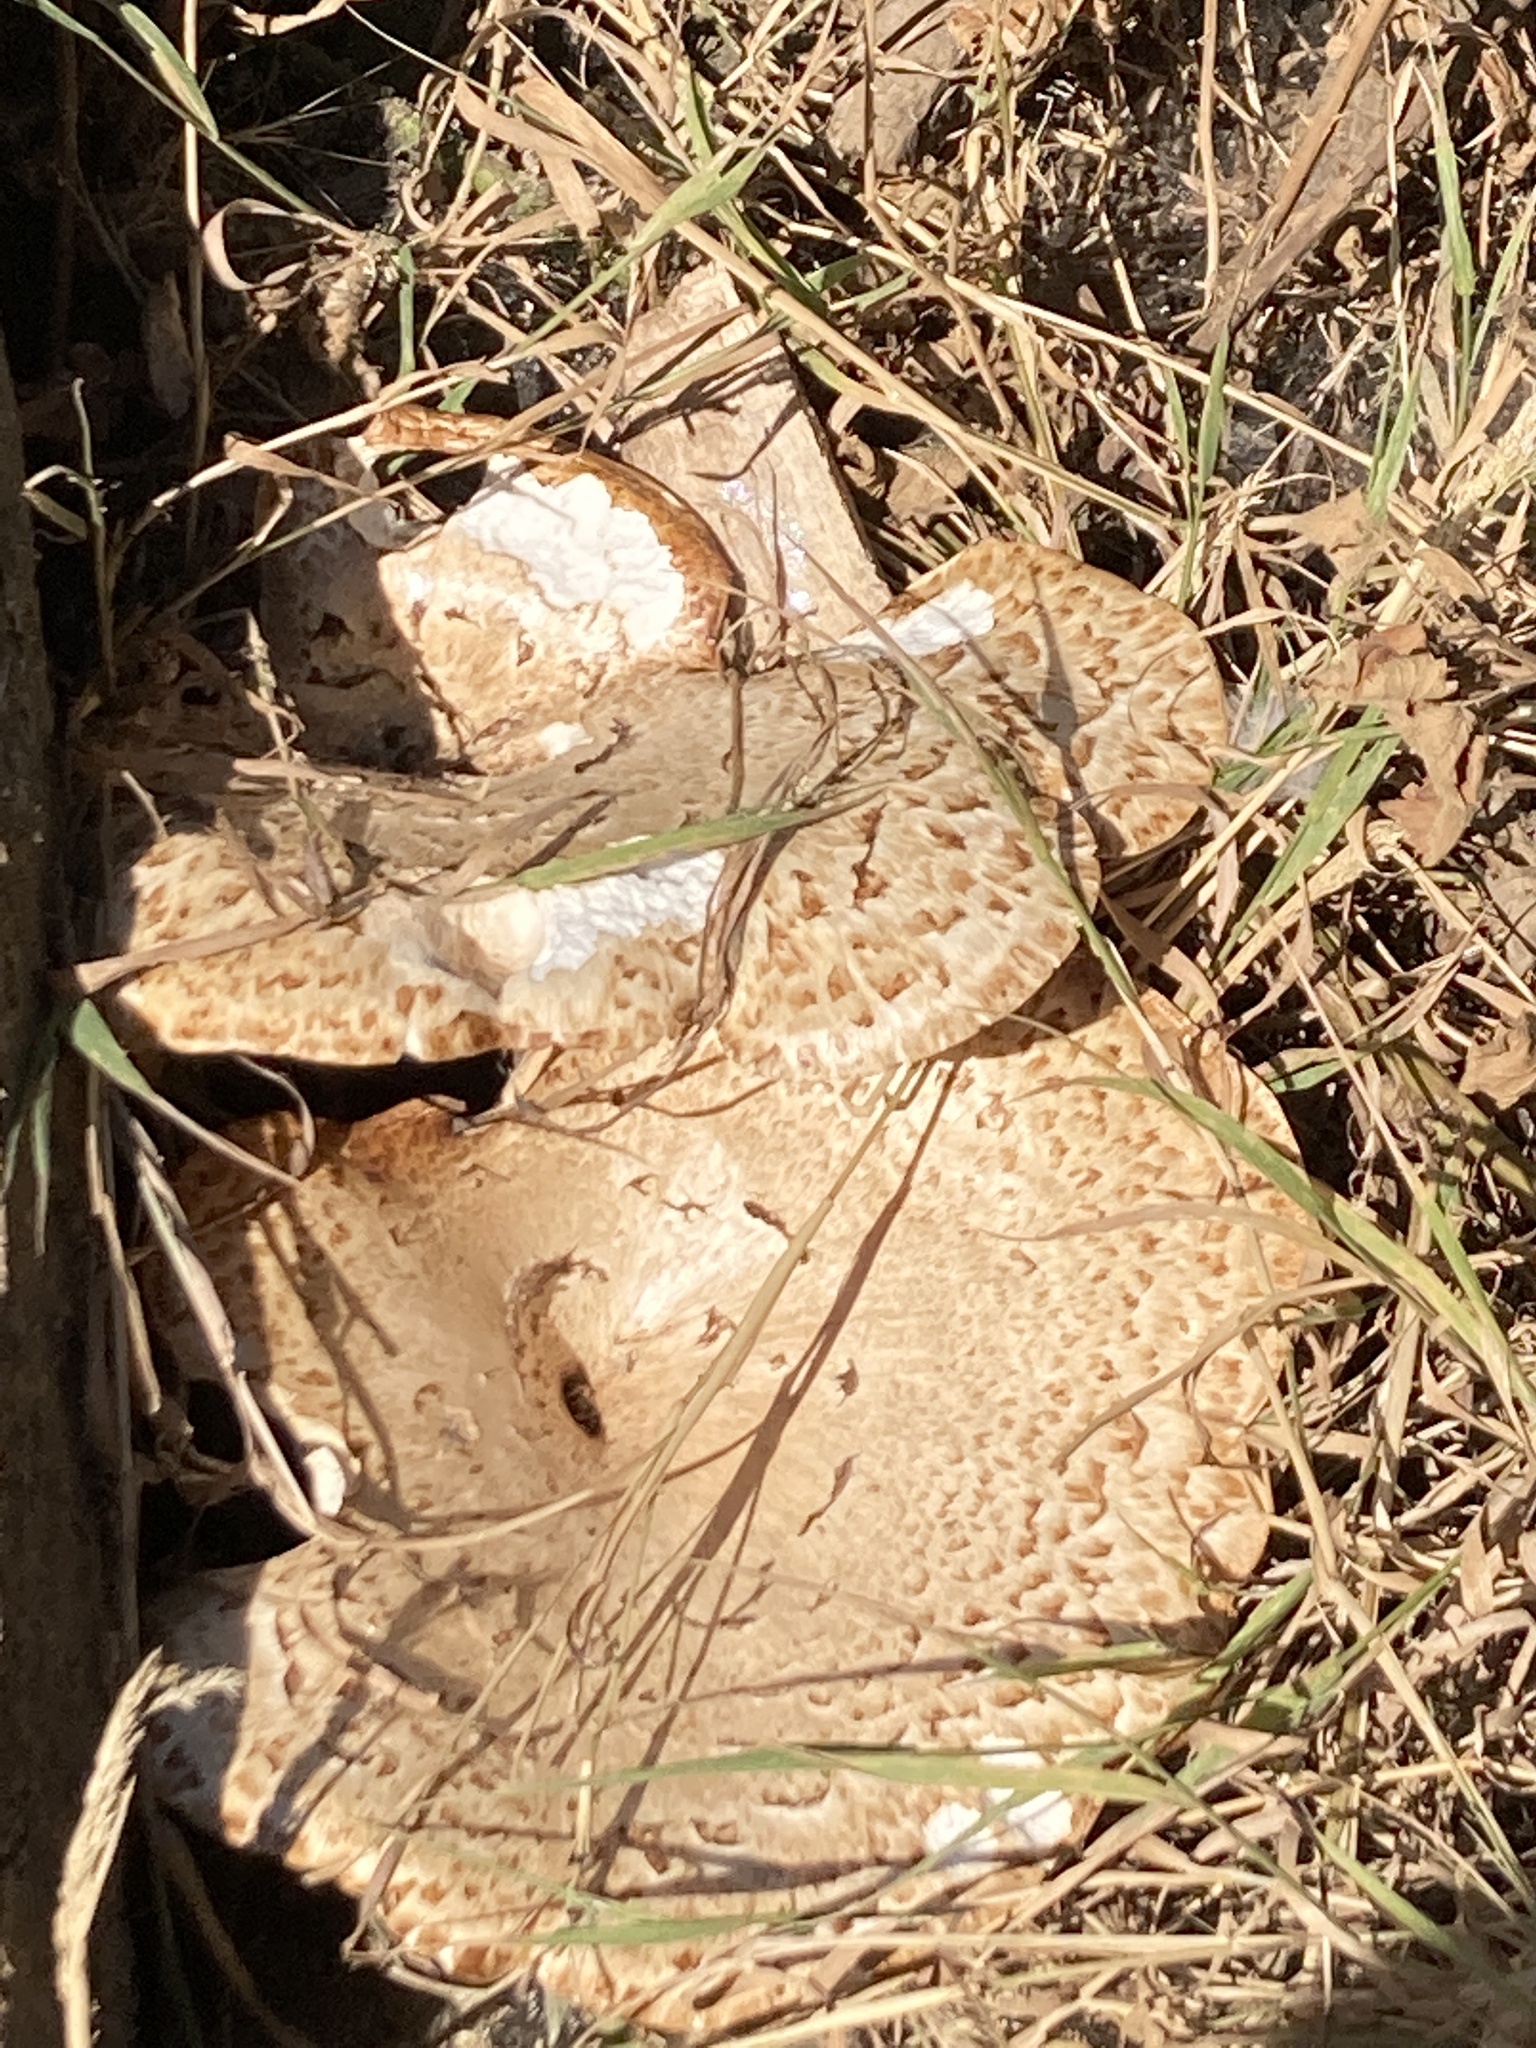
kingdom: Fungi
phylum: Basidiomycota
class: Agaricomycetes
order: Polyporales
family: Polyporaceae
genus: Cerioporus
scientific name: Cerioporus squamosus
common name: Dryad's saddle
